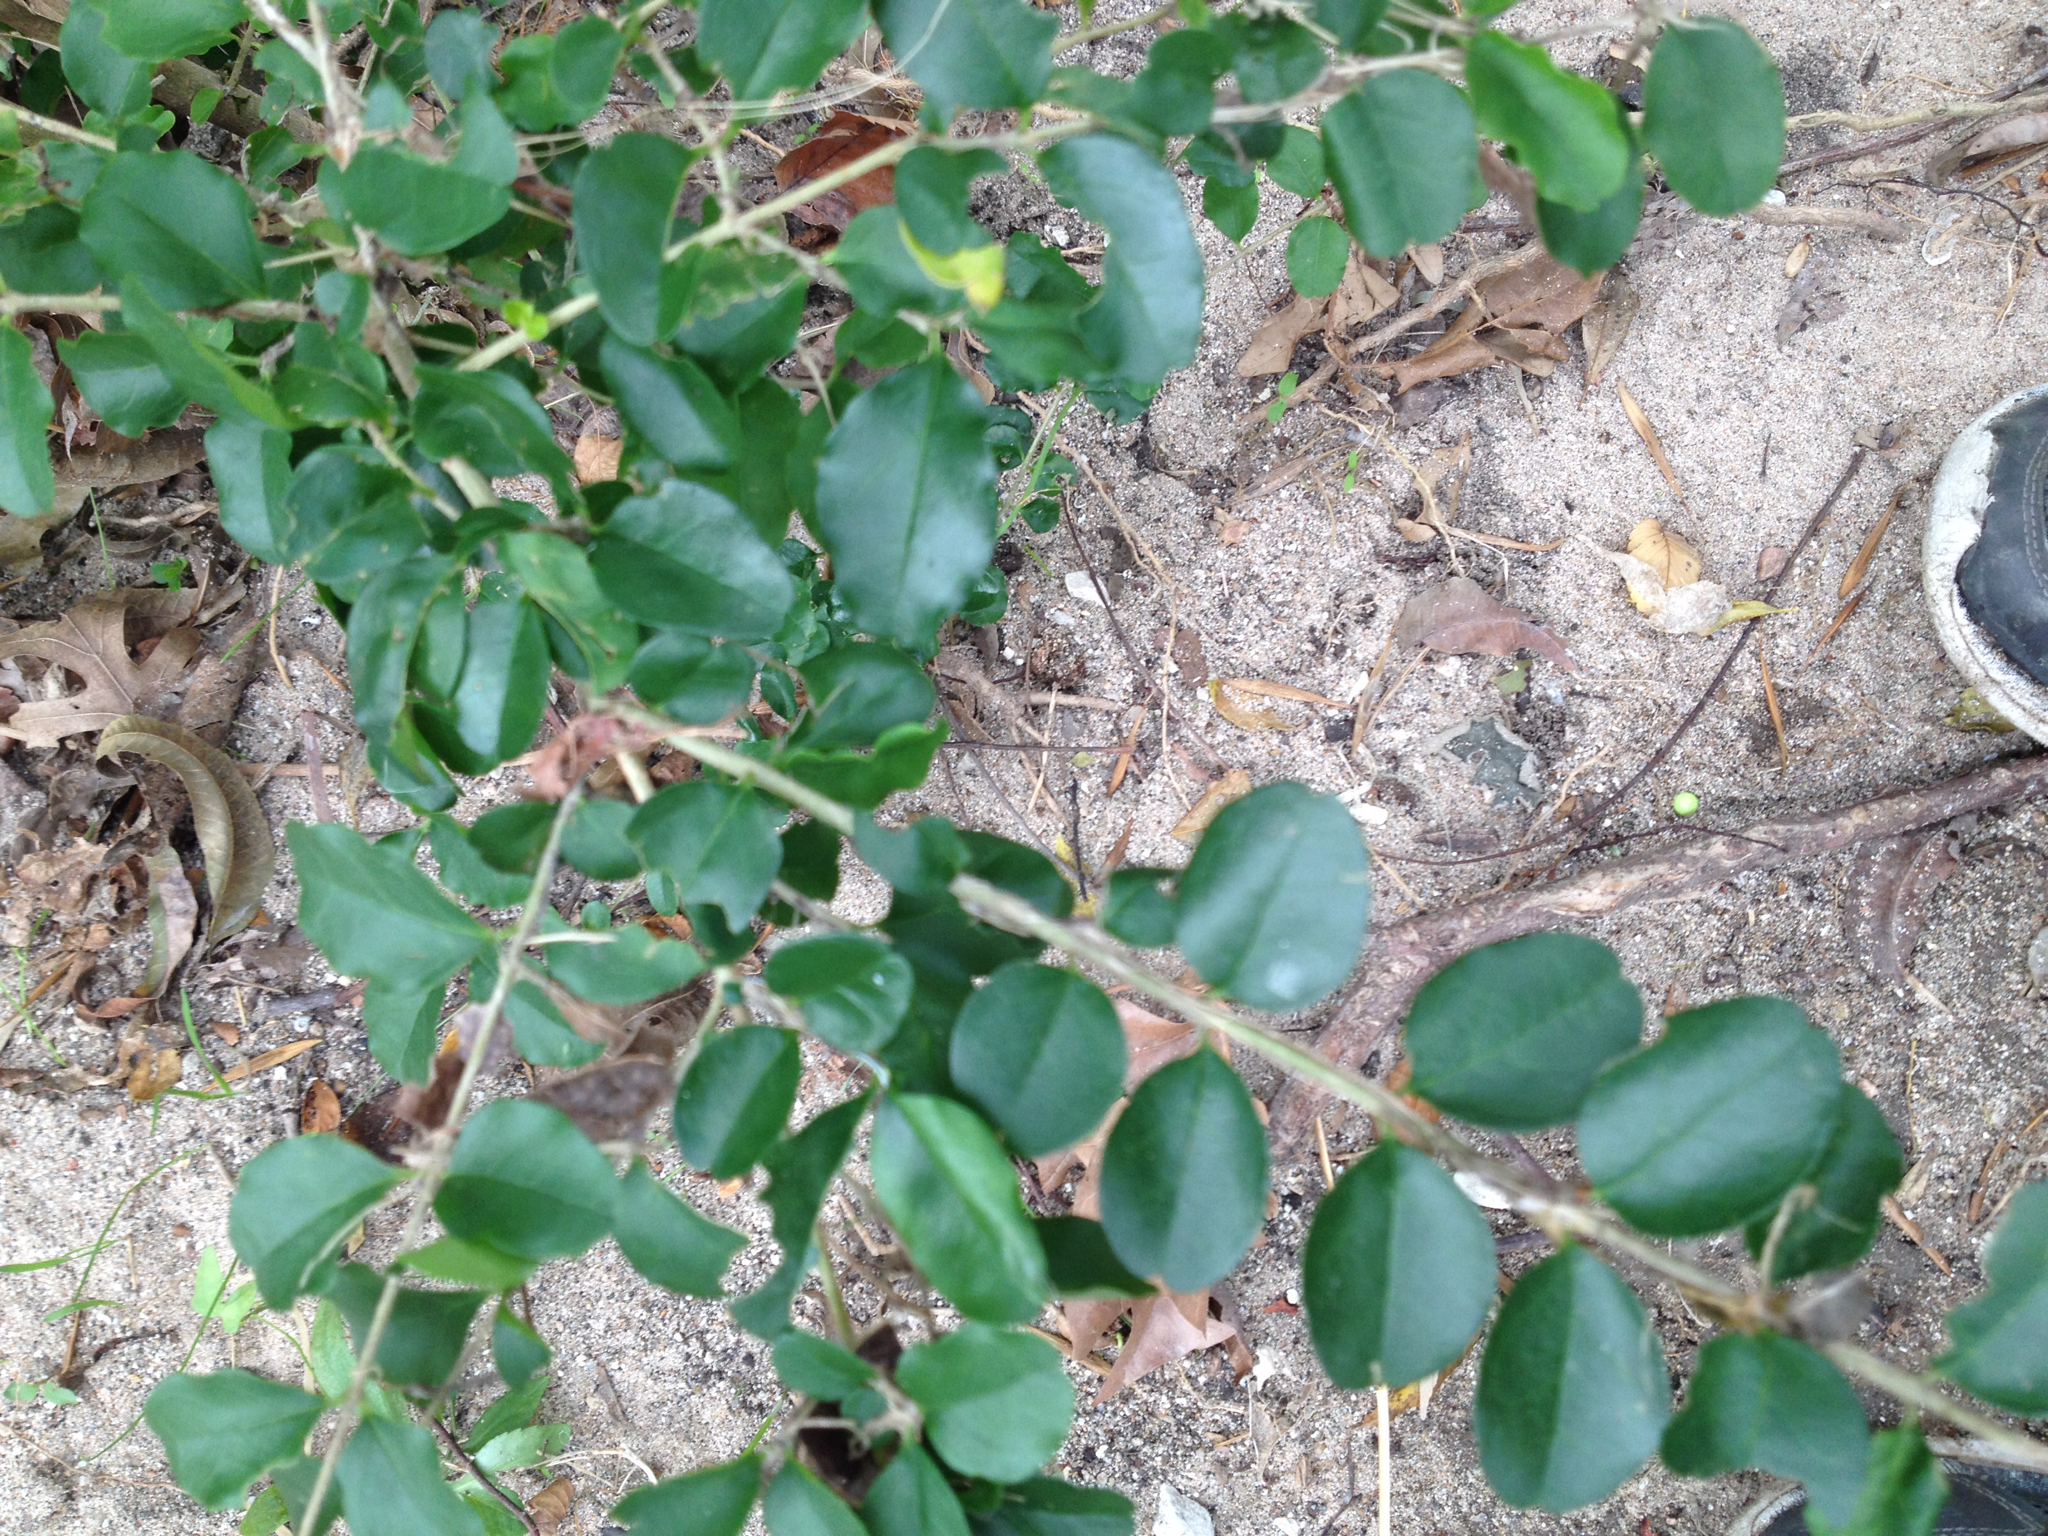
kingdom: Plantae
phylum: Tracheophyta
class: Magnoliopsida
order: Lamiales
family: Oleaceae
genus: Ligustrum
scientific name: Ligustrum sinense
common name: Chinese privet
